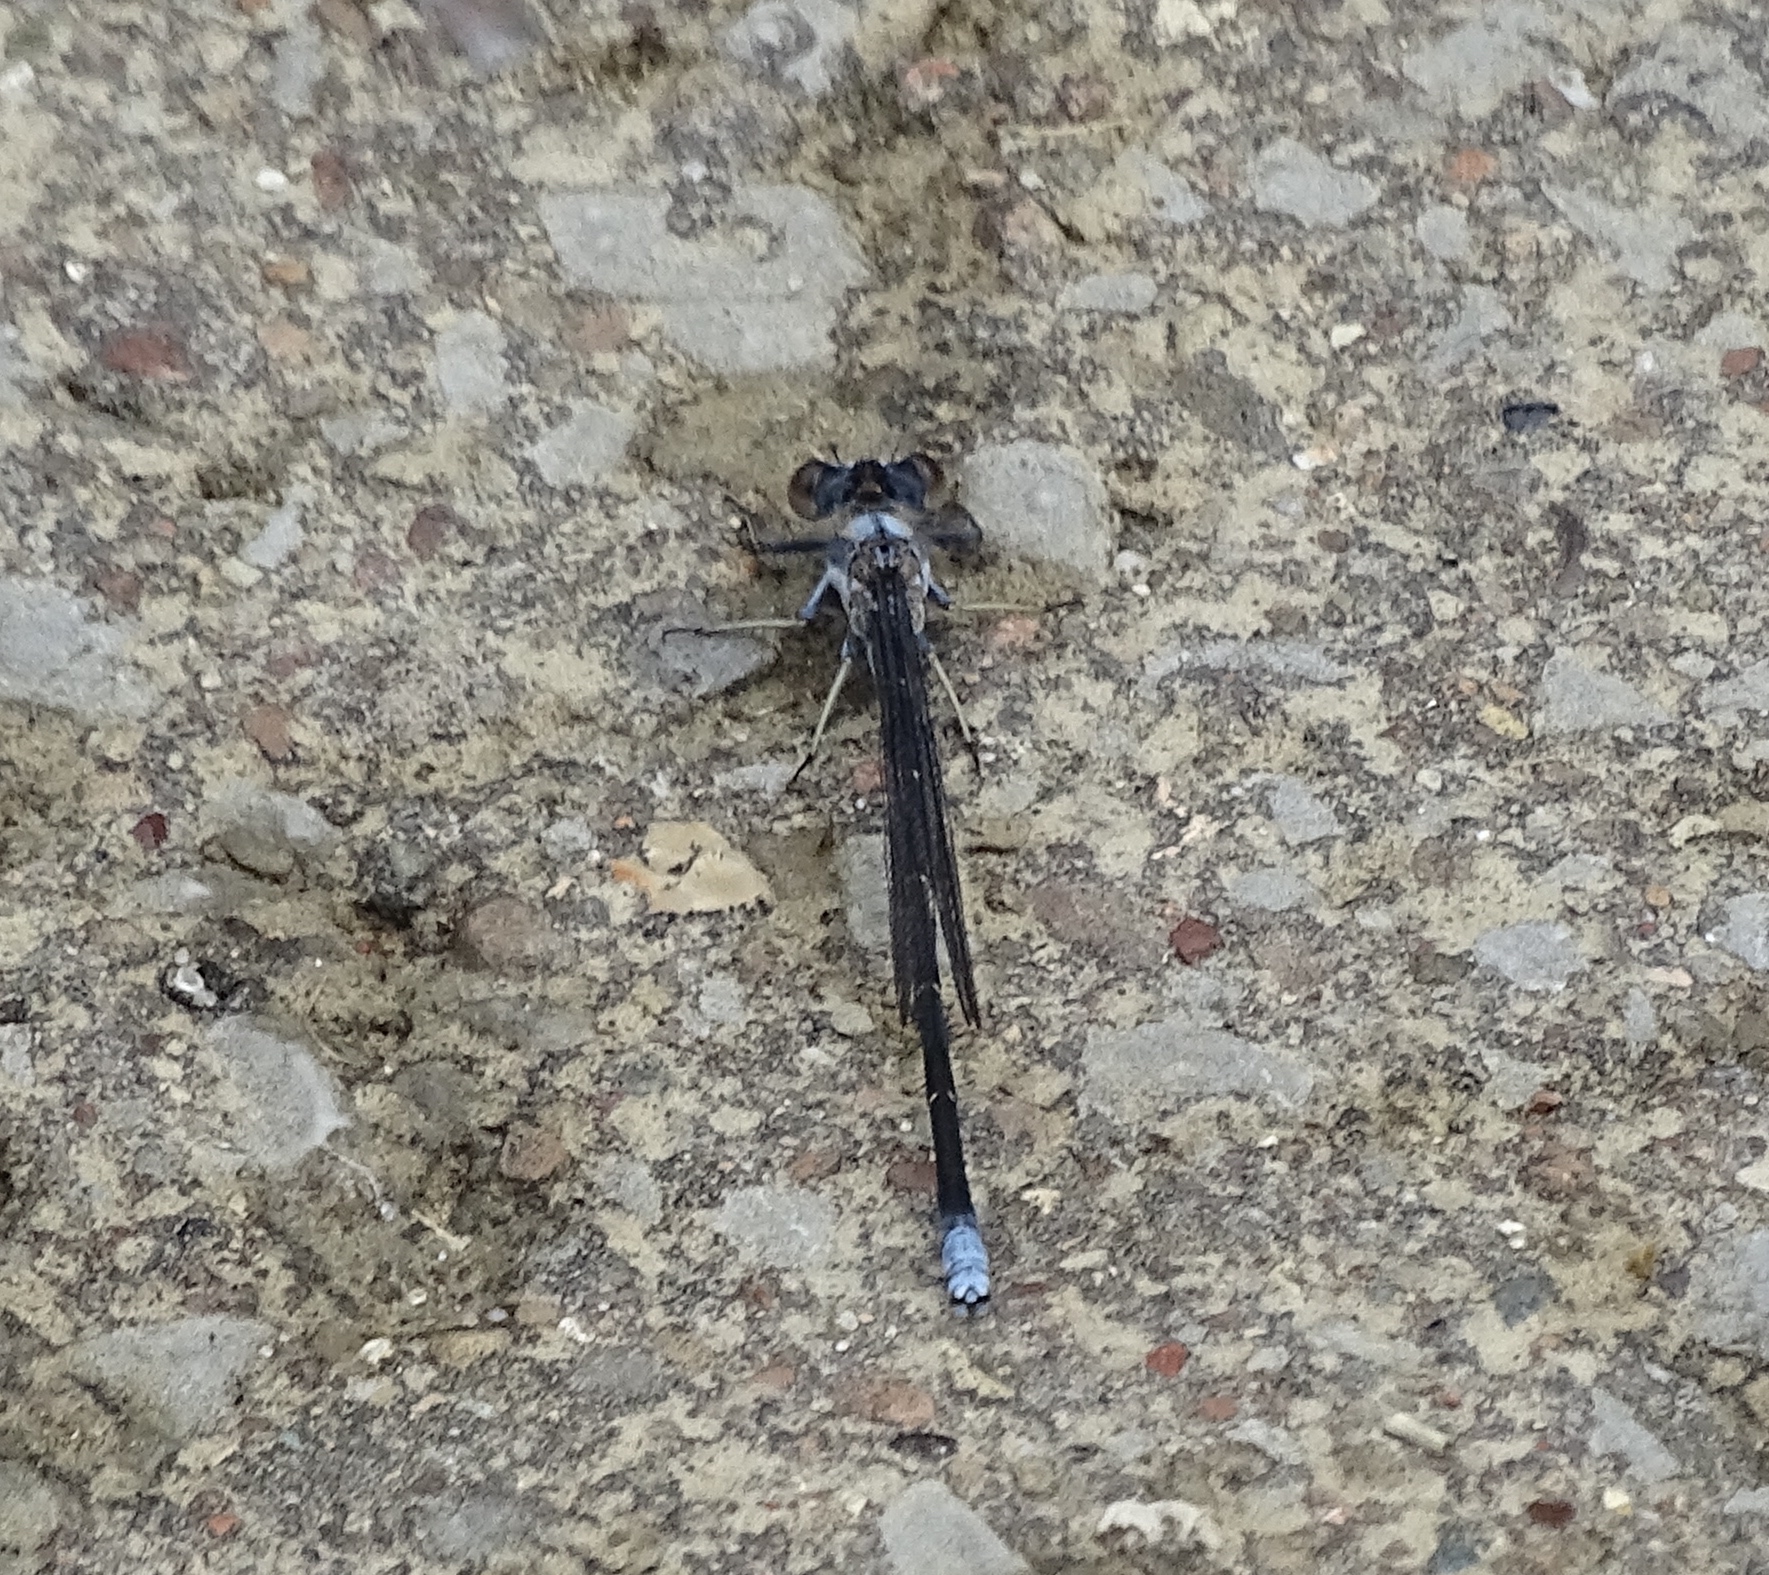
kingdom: Animalia
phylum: Arthropoda
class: Insecta
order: Odonata
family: Coenagrionidae
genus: Argia
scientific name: Argia moesta
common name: Powdered dancer
